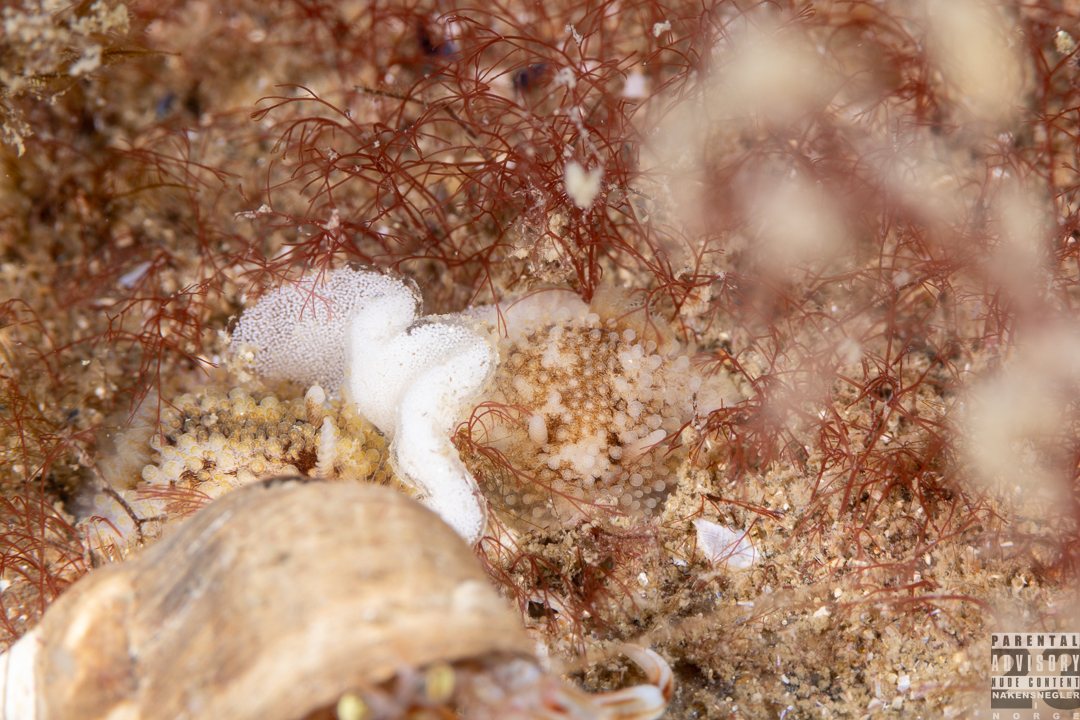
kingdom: Animalia
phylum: Mollusca
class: Gastropoda
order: Nudibranchia
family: Onchidorididae
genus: Onchidoris
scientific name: Onchidoris bilamellata
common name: Barnacle-eating onchidoris
